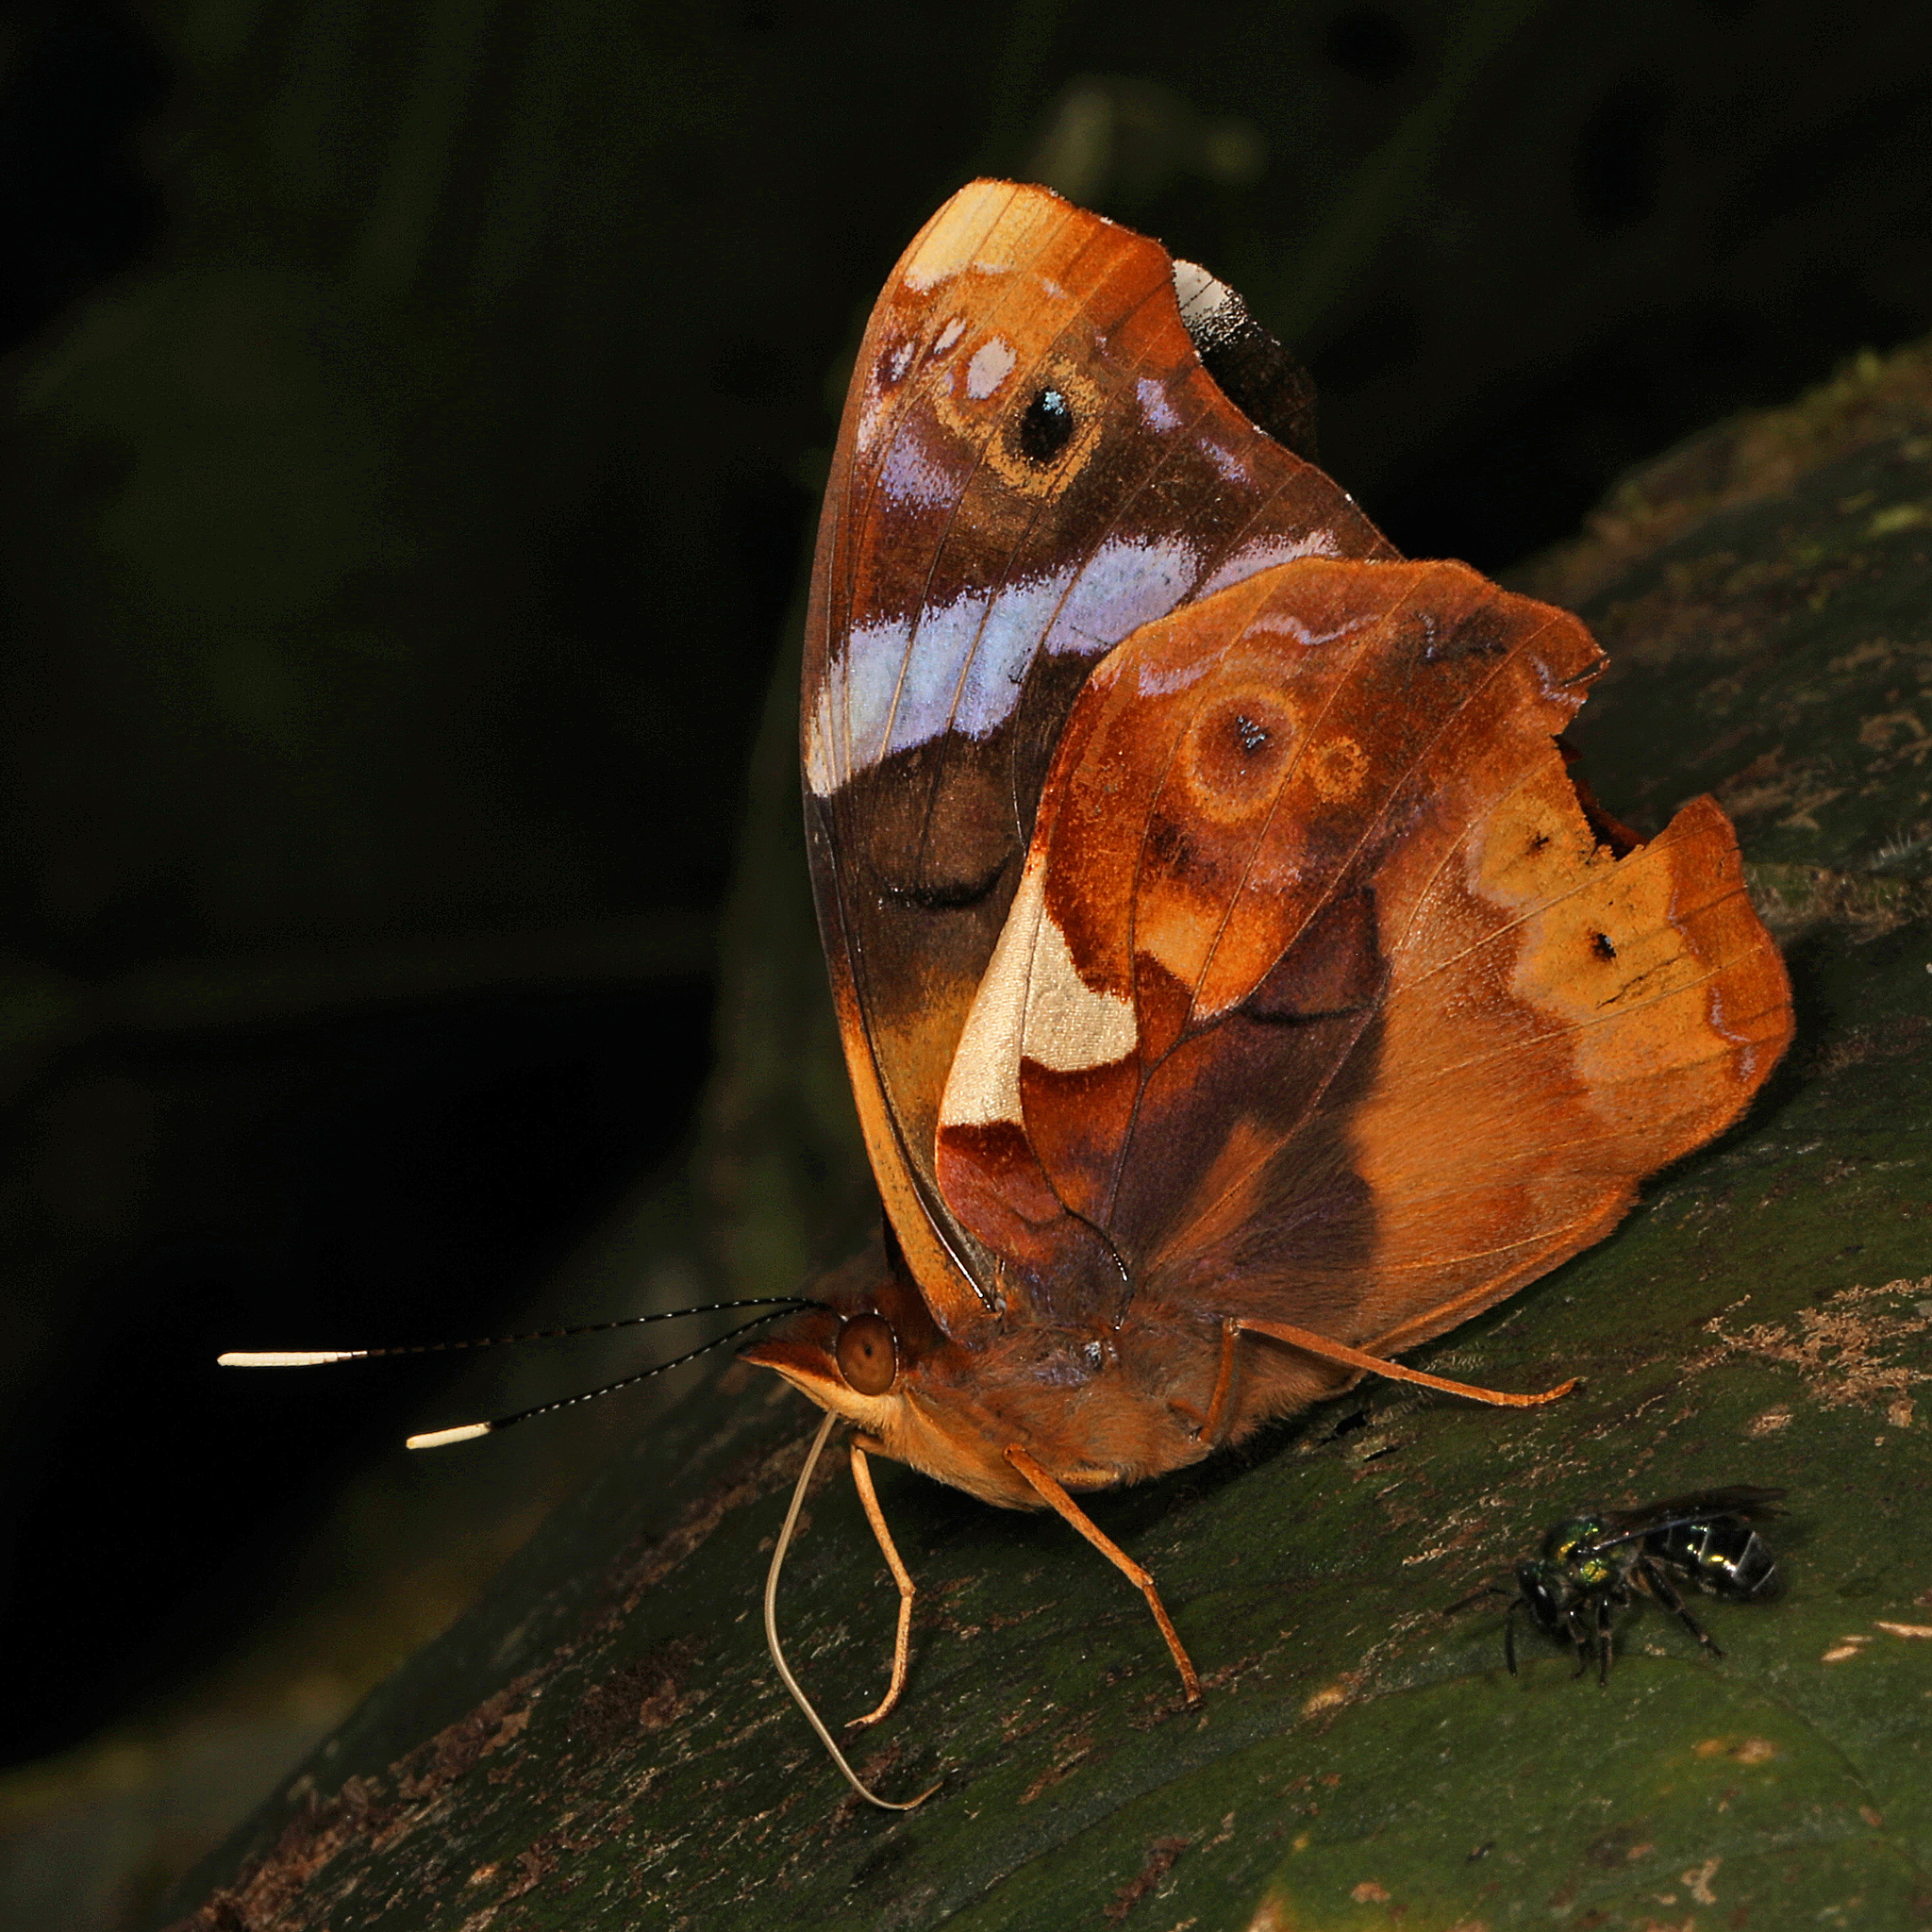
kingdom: Animalia
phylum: Arthropoda
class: Insecta
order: Lepidoptera
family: Nymphalidae
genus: Epiphile
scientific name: Epiphile eriopis
